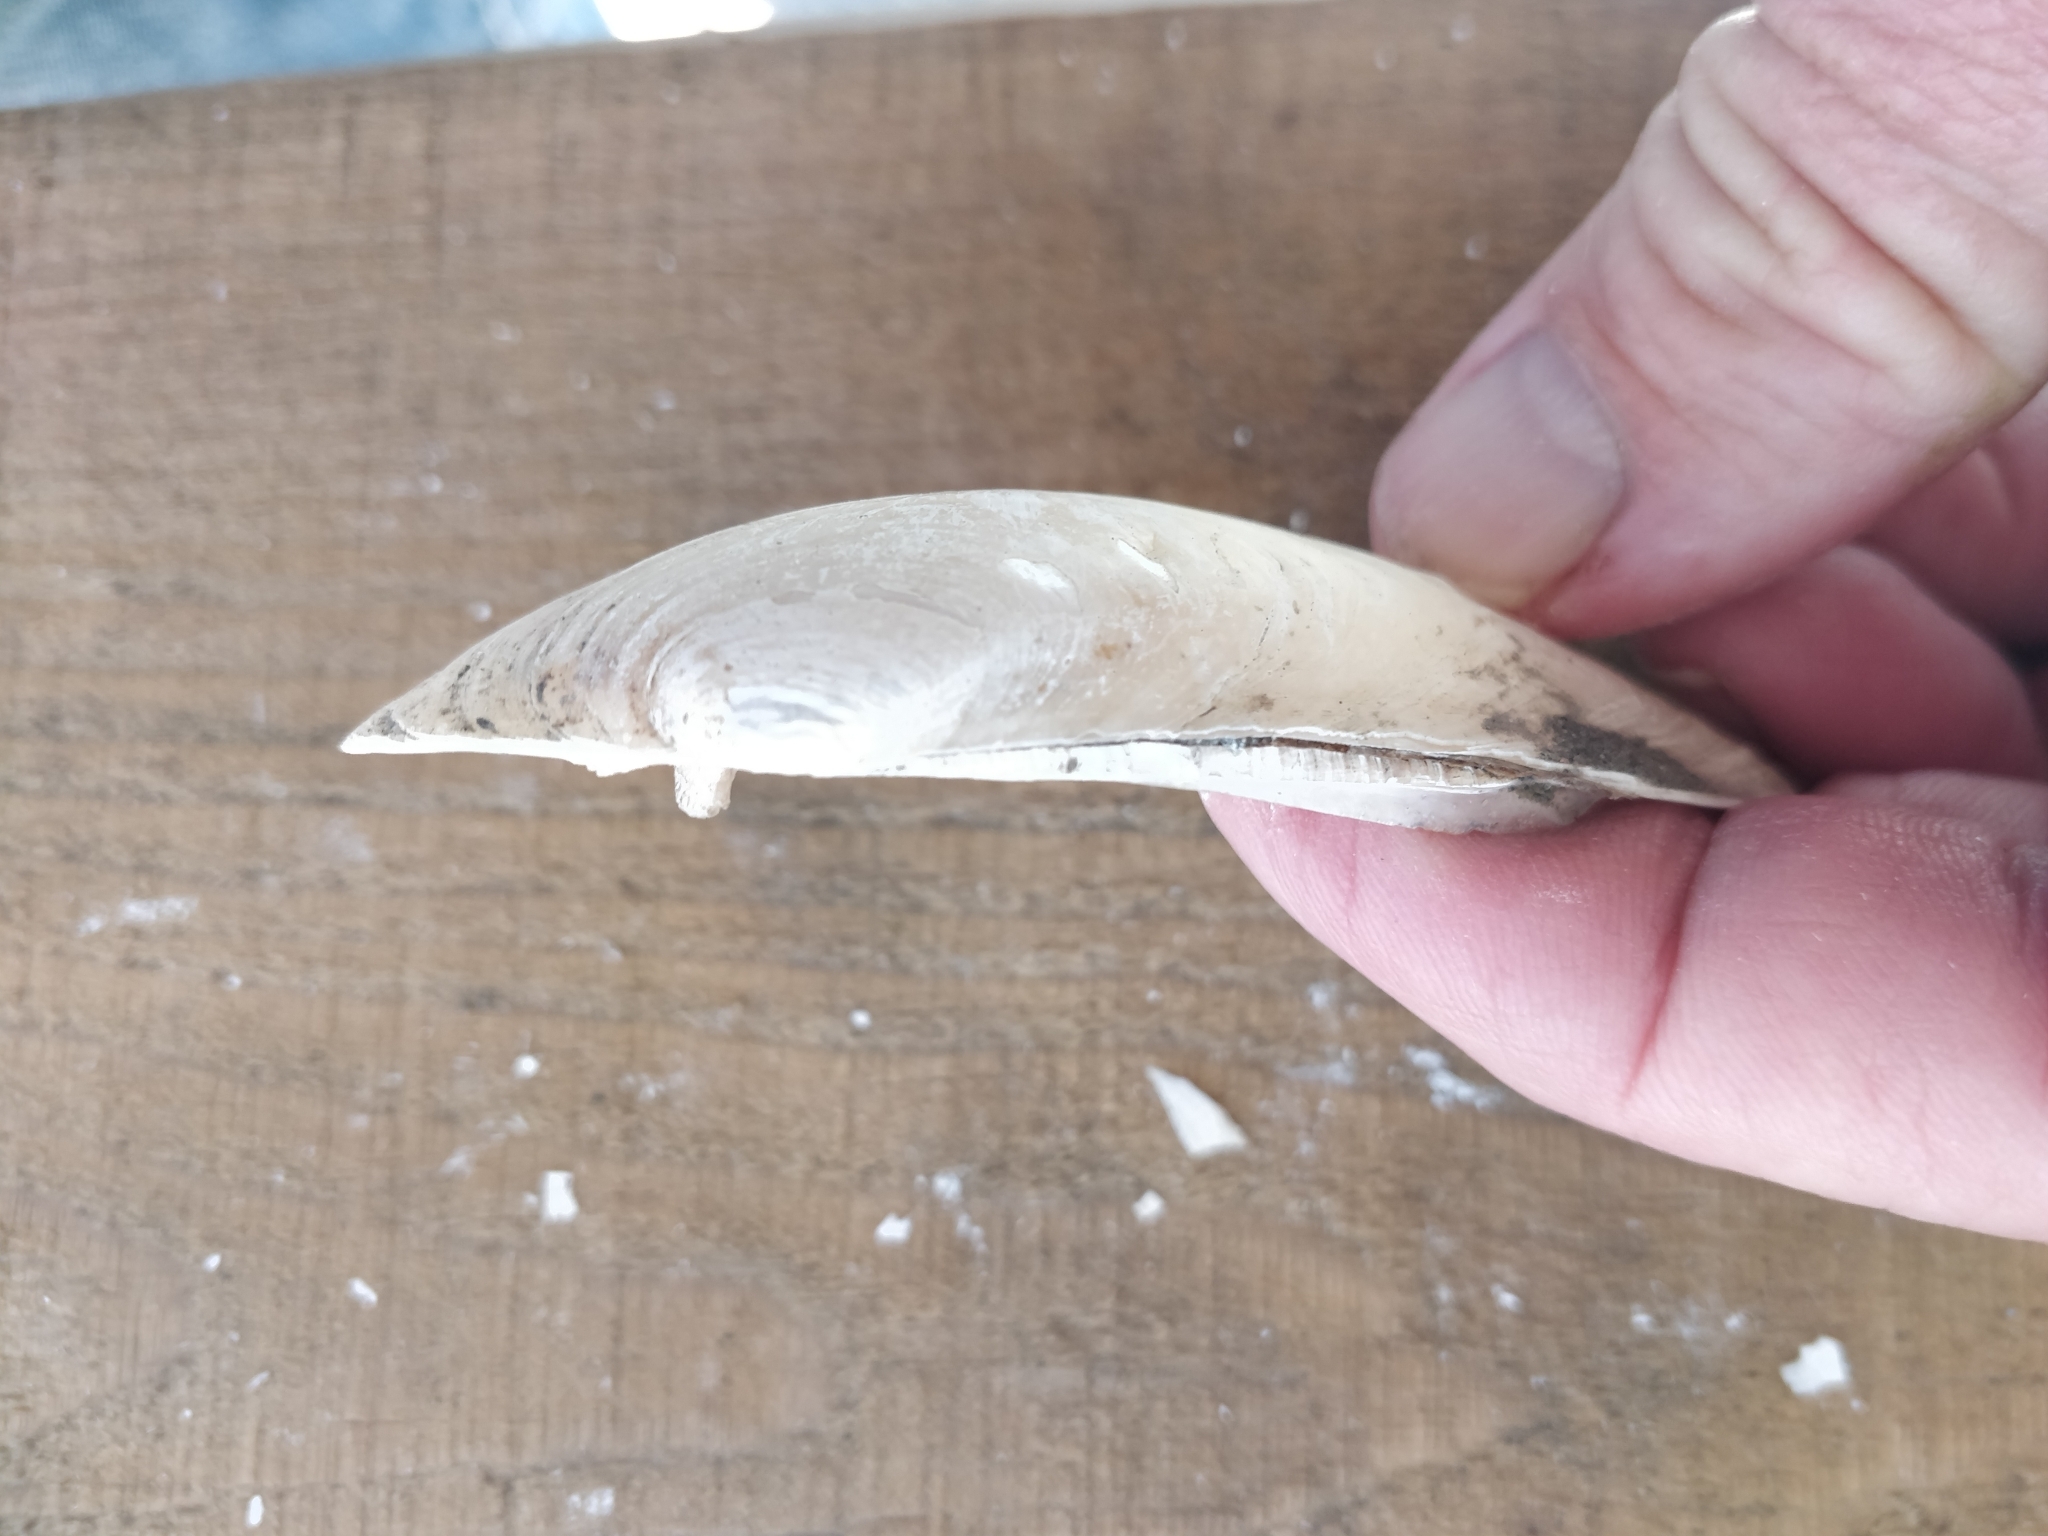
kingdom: Animalia
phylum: Mollusca
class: Bivalvia
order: Unionida
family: Unionidae
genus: Lampsilis
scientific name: Lampsilis siliquoidea
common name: Fatmucket
